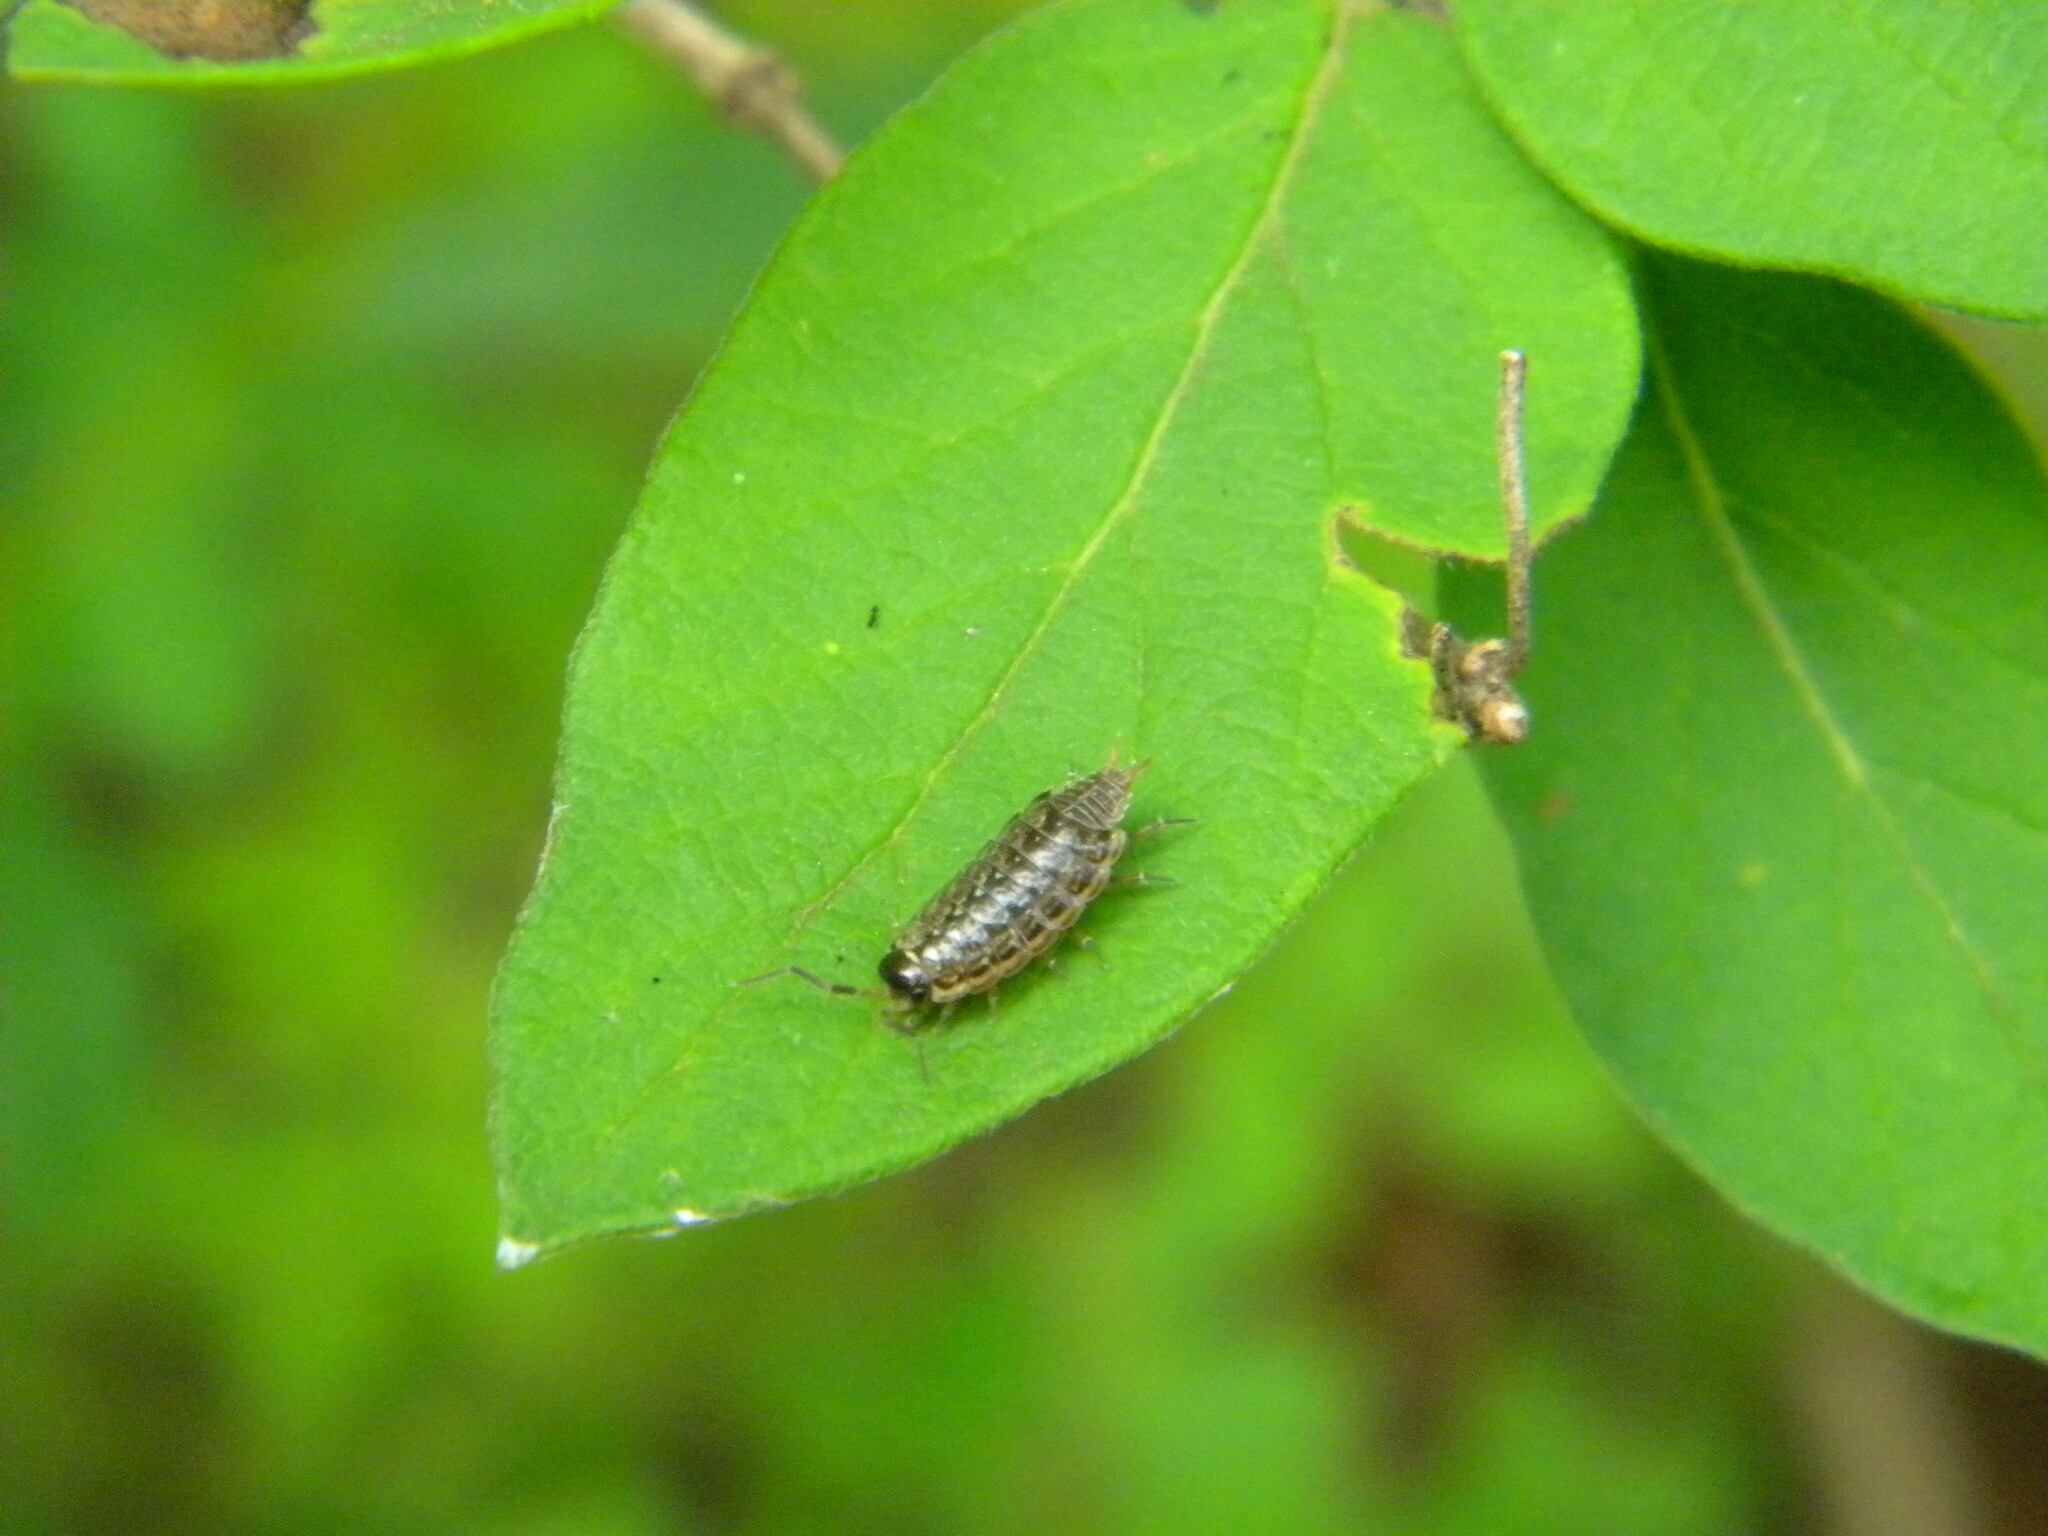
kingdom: Animalia
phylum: Arthropoda
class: Malacostraca
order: Isopoda
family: Philosciidae
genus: Philoscia
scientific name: Philoscia muscorum
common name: Common striped woodlouse
